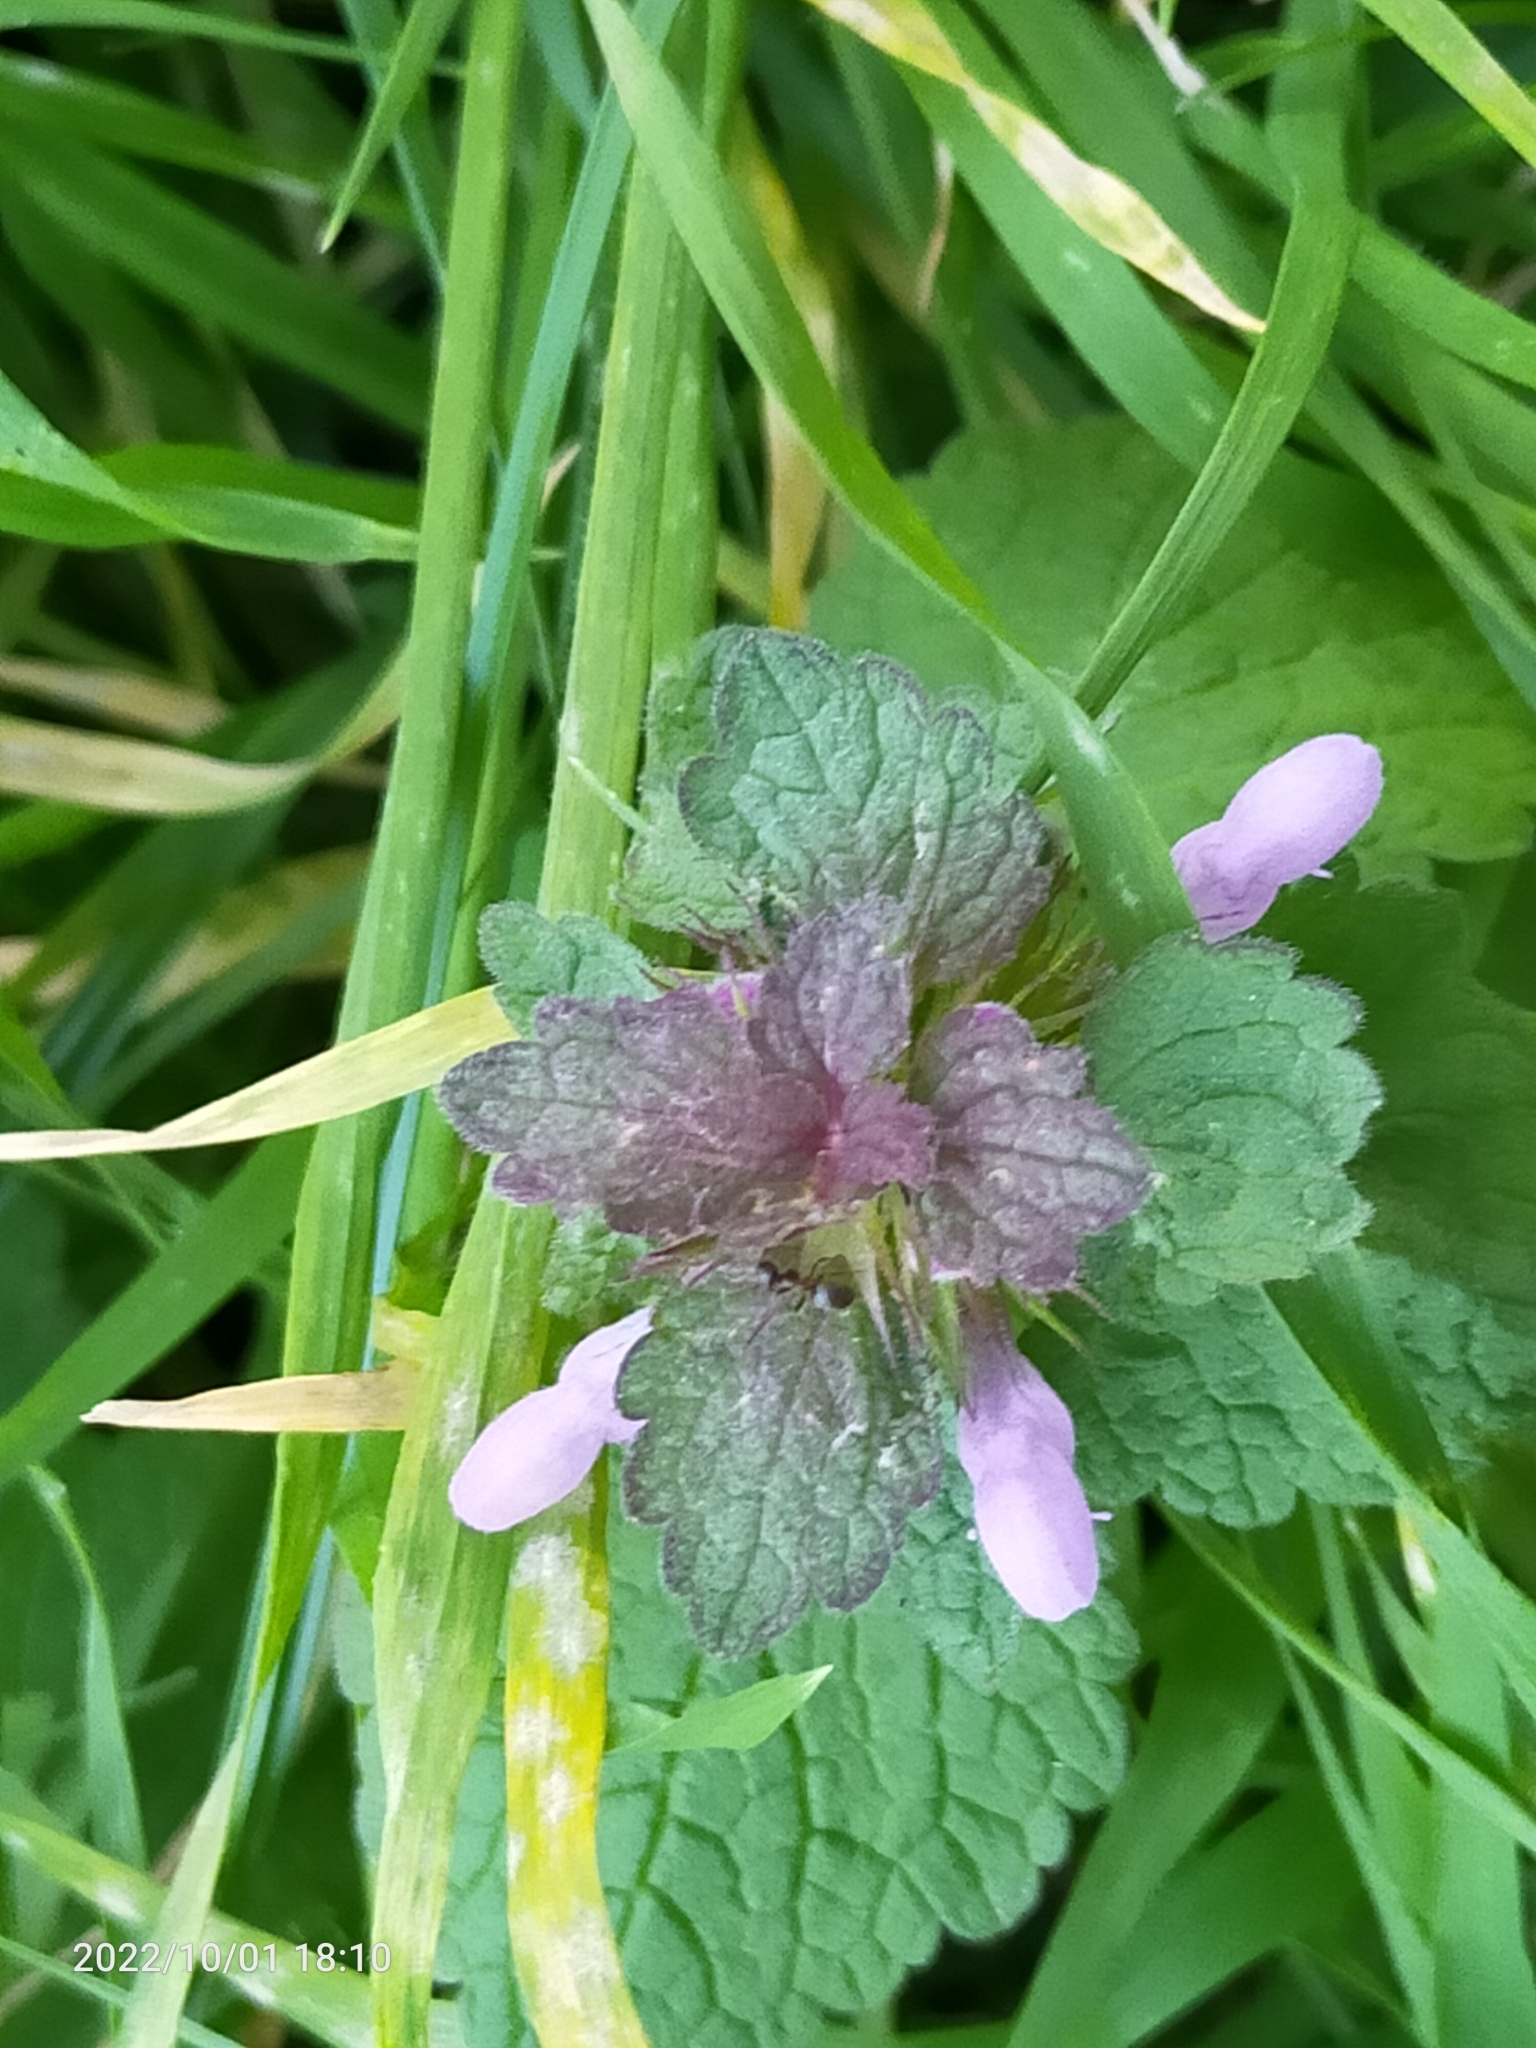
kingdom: Plantae
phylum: Tracheophyta
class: Magnoliopsida
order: Lamiales
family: Lamiaceae
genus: Lamium
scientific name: Lamium purpureum
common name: Red dead-nettle
